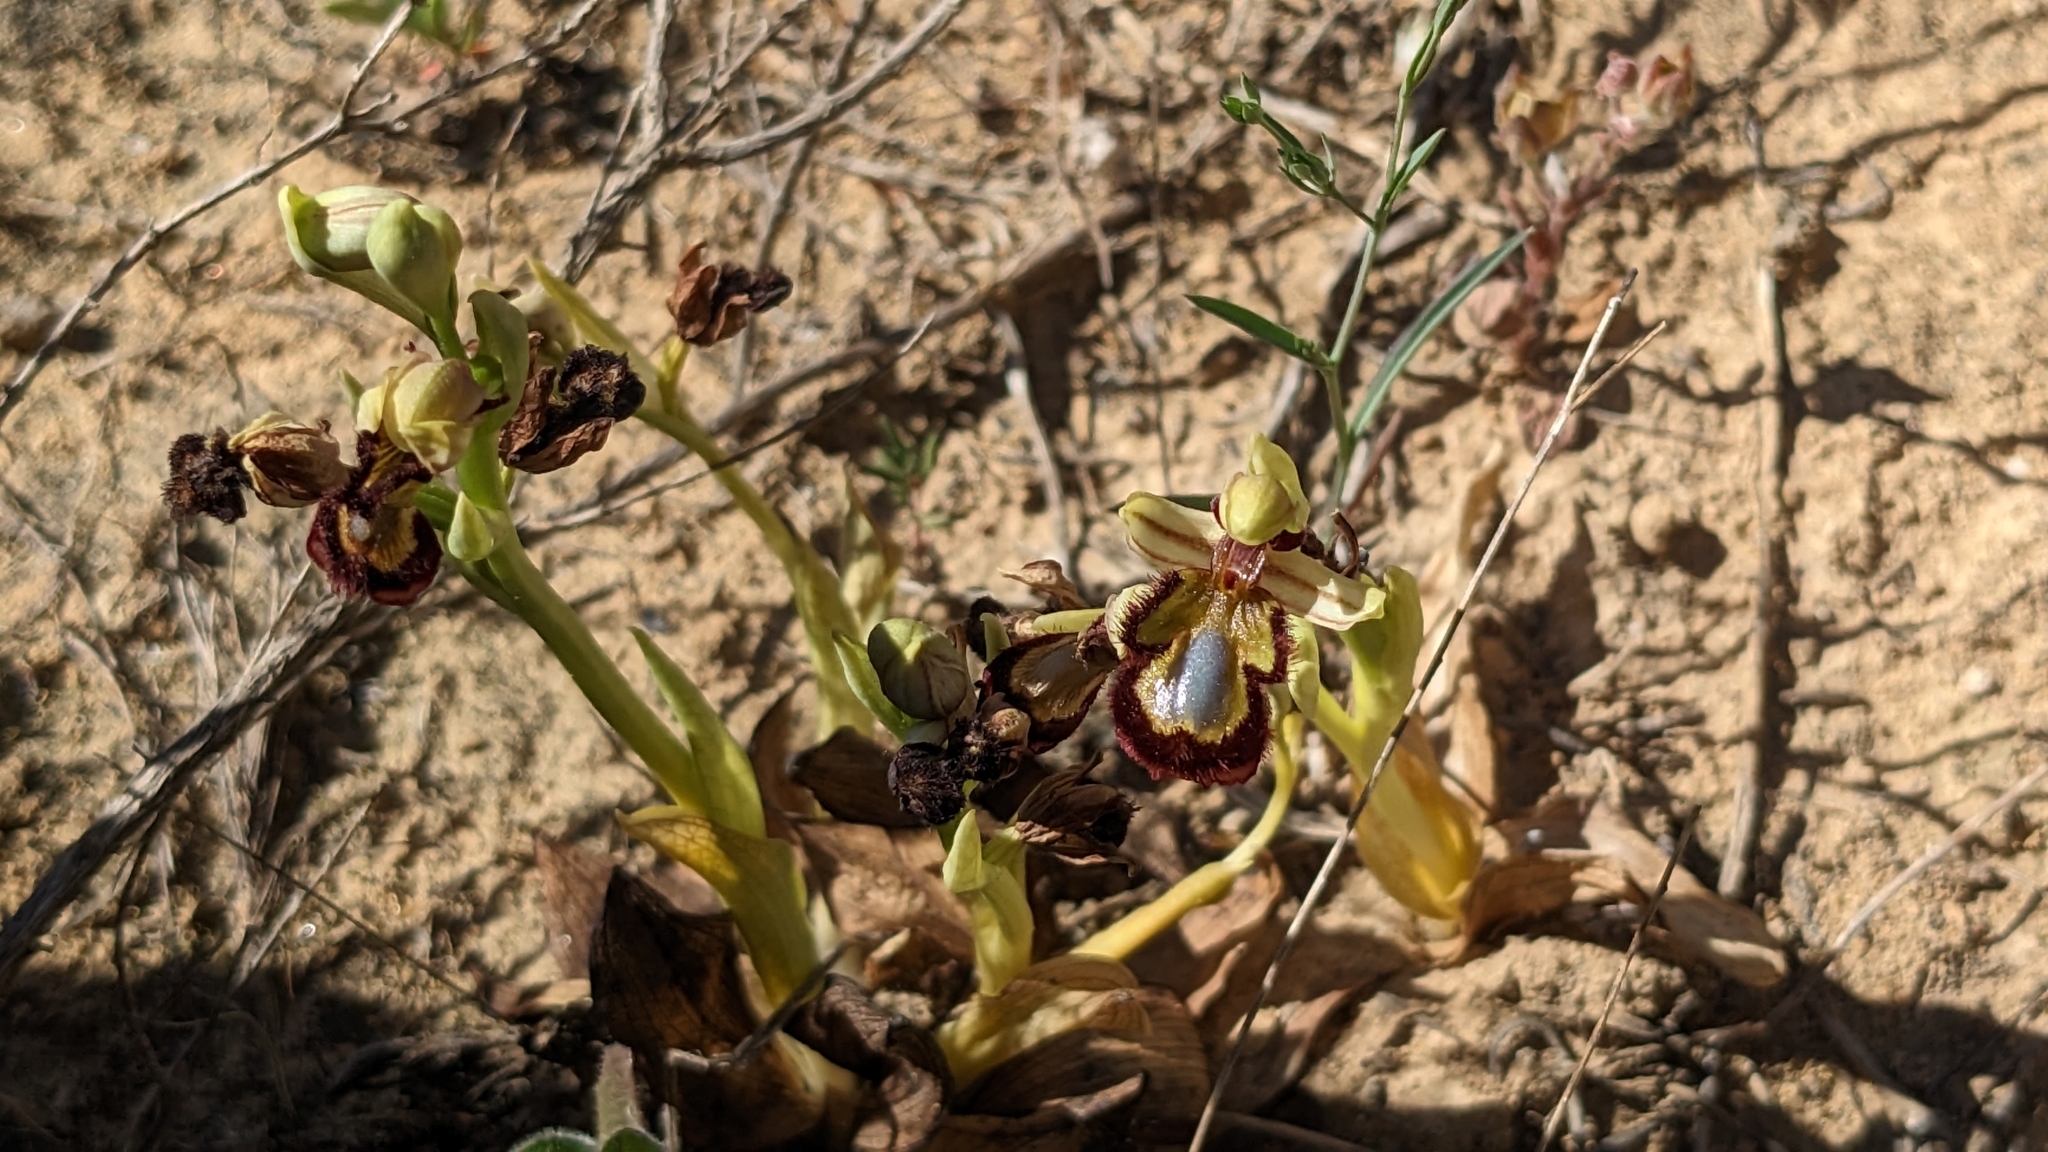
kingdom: Plantae
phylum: Tracheophyta
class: Liliopsida
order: Asparagales
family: Orchidaceae
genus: Ophrys
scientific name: Ophrys speculum
